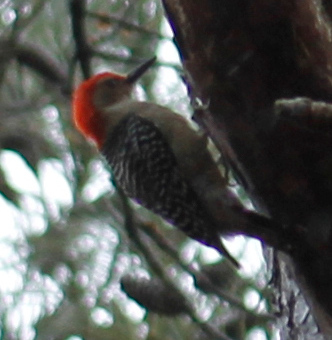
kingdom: Animalia
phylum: Chordata
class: Aves
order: Piciformes
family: Picidae
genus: Melanerpes
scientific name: Melanerpes carolinus
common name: Red-bellied woodpecker
